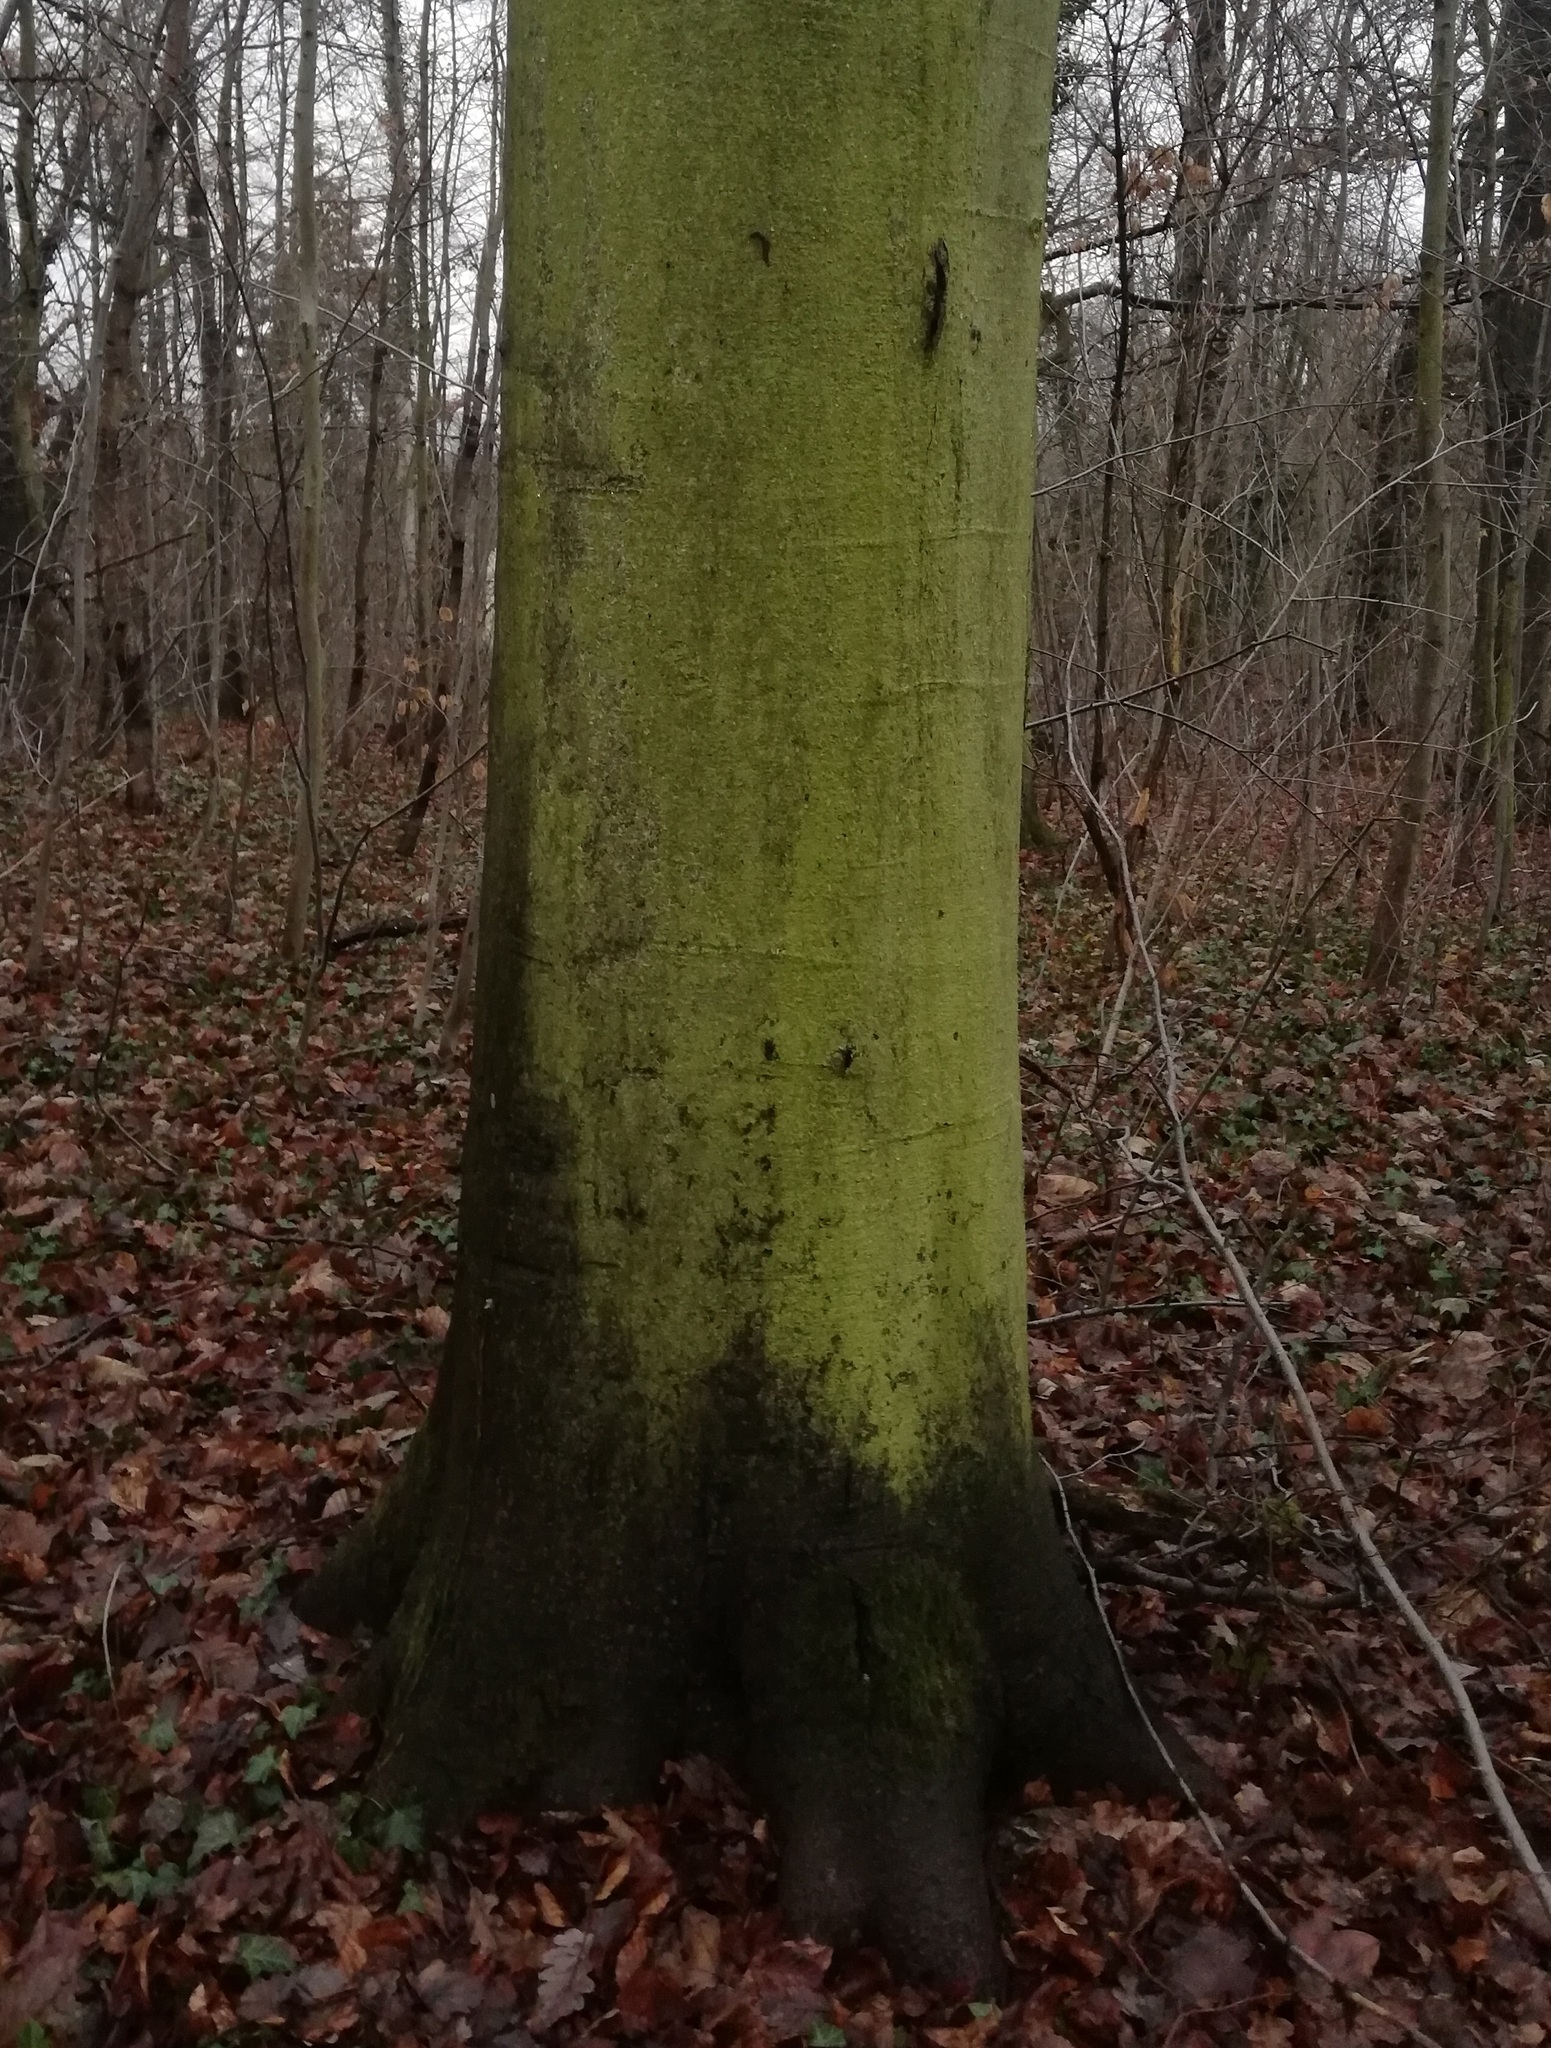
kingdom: Animalia
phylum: Mollusca
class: Gastropoda
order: Stylommatophora
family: Limacidae
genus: Lehmannia
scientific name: Lehmannia marginata
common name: Tree slug
